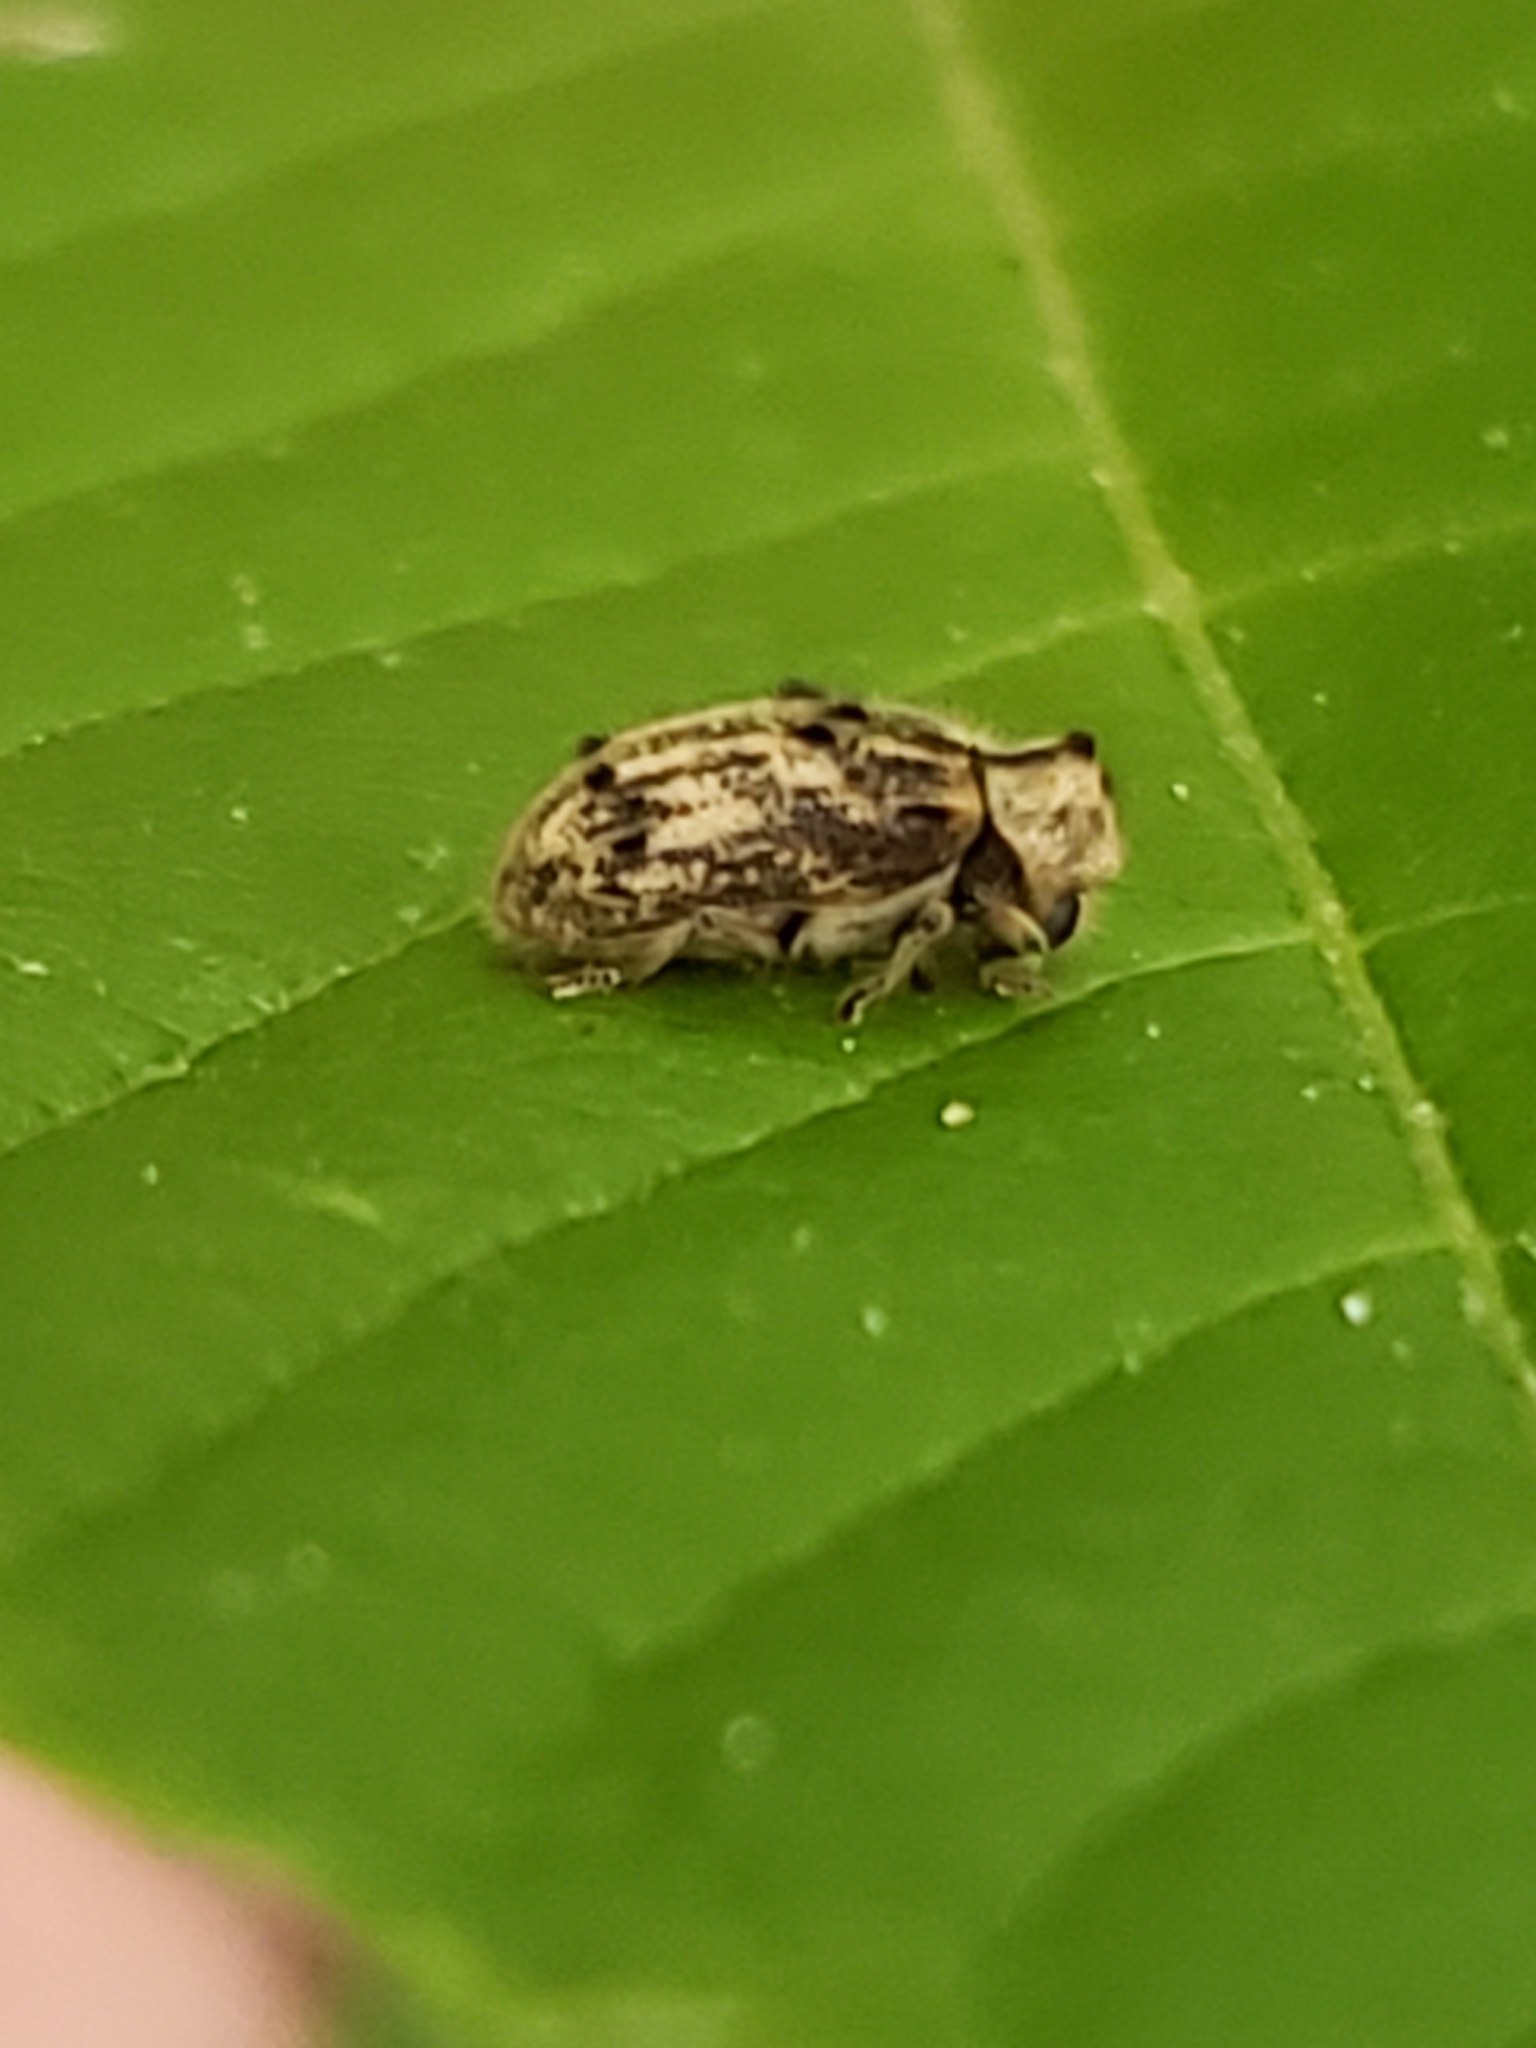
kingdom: Animalia
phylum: Arthropoda
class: Insecta
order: Coleoptera
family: Anobiidae
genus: Trichodesma
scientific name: Trichodesma klagesi
